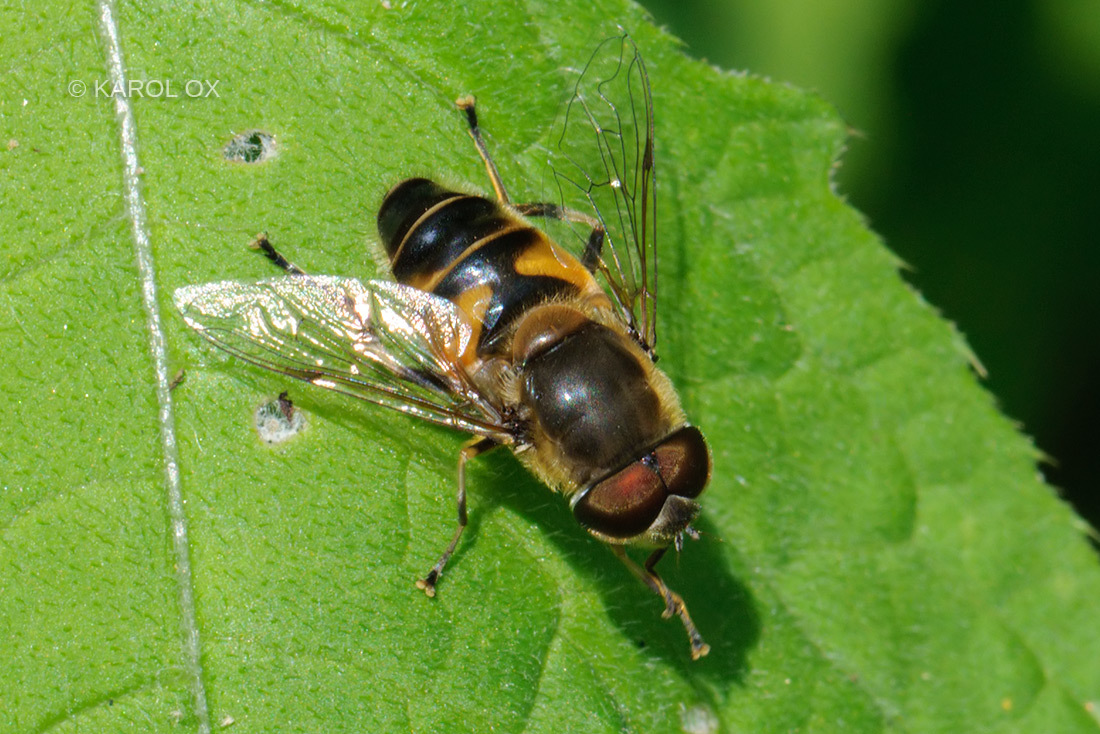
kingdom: Animalia
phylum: Arthropoda
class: Insecta
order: Diptera
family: Syrphidae
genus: Eristalis
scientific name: Eristalis pertinax
